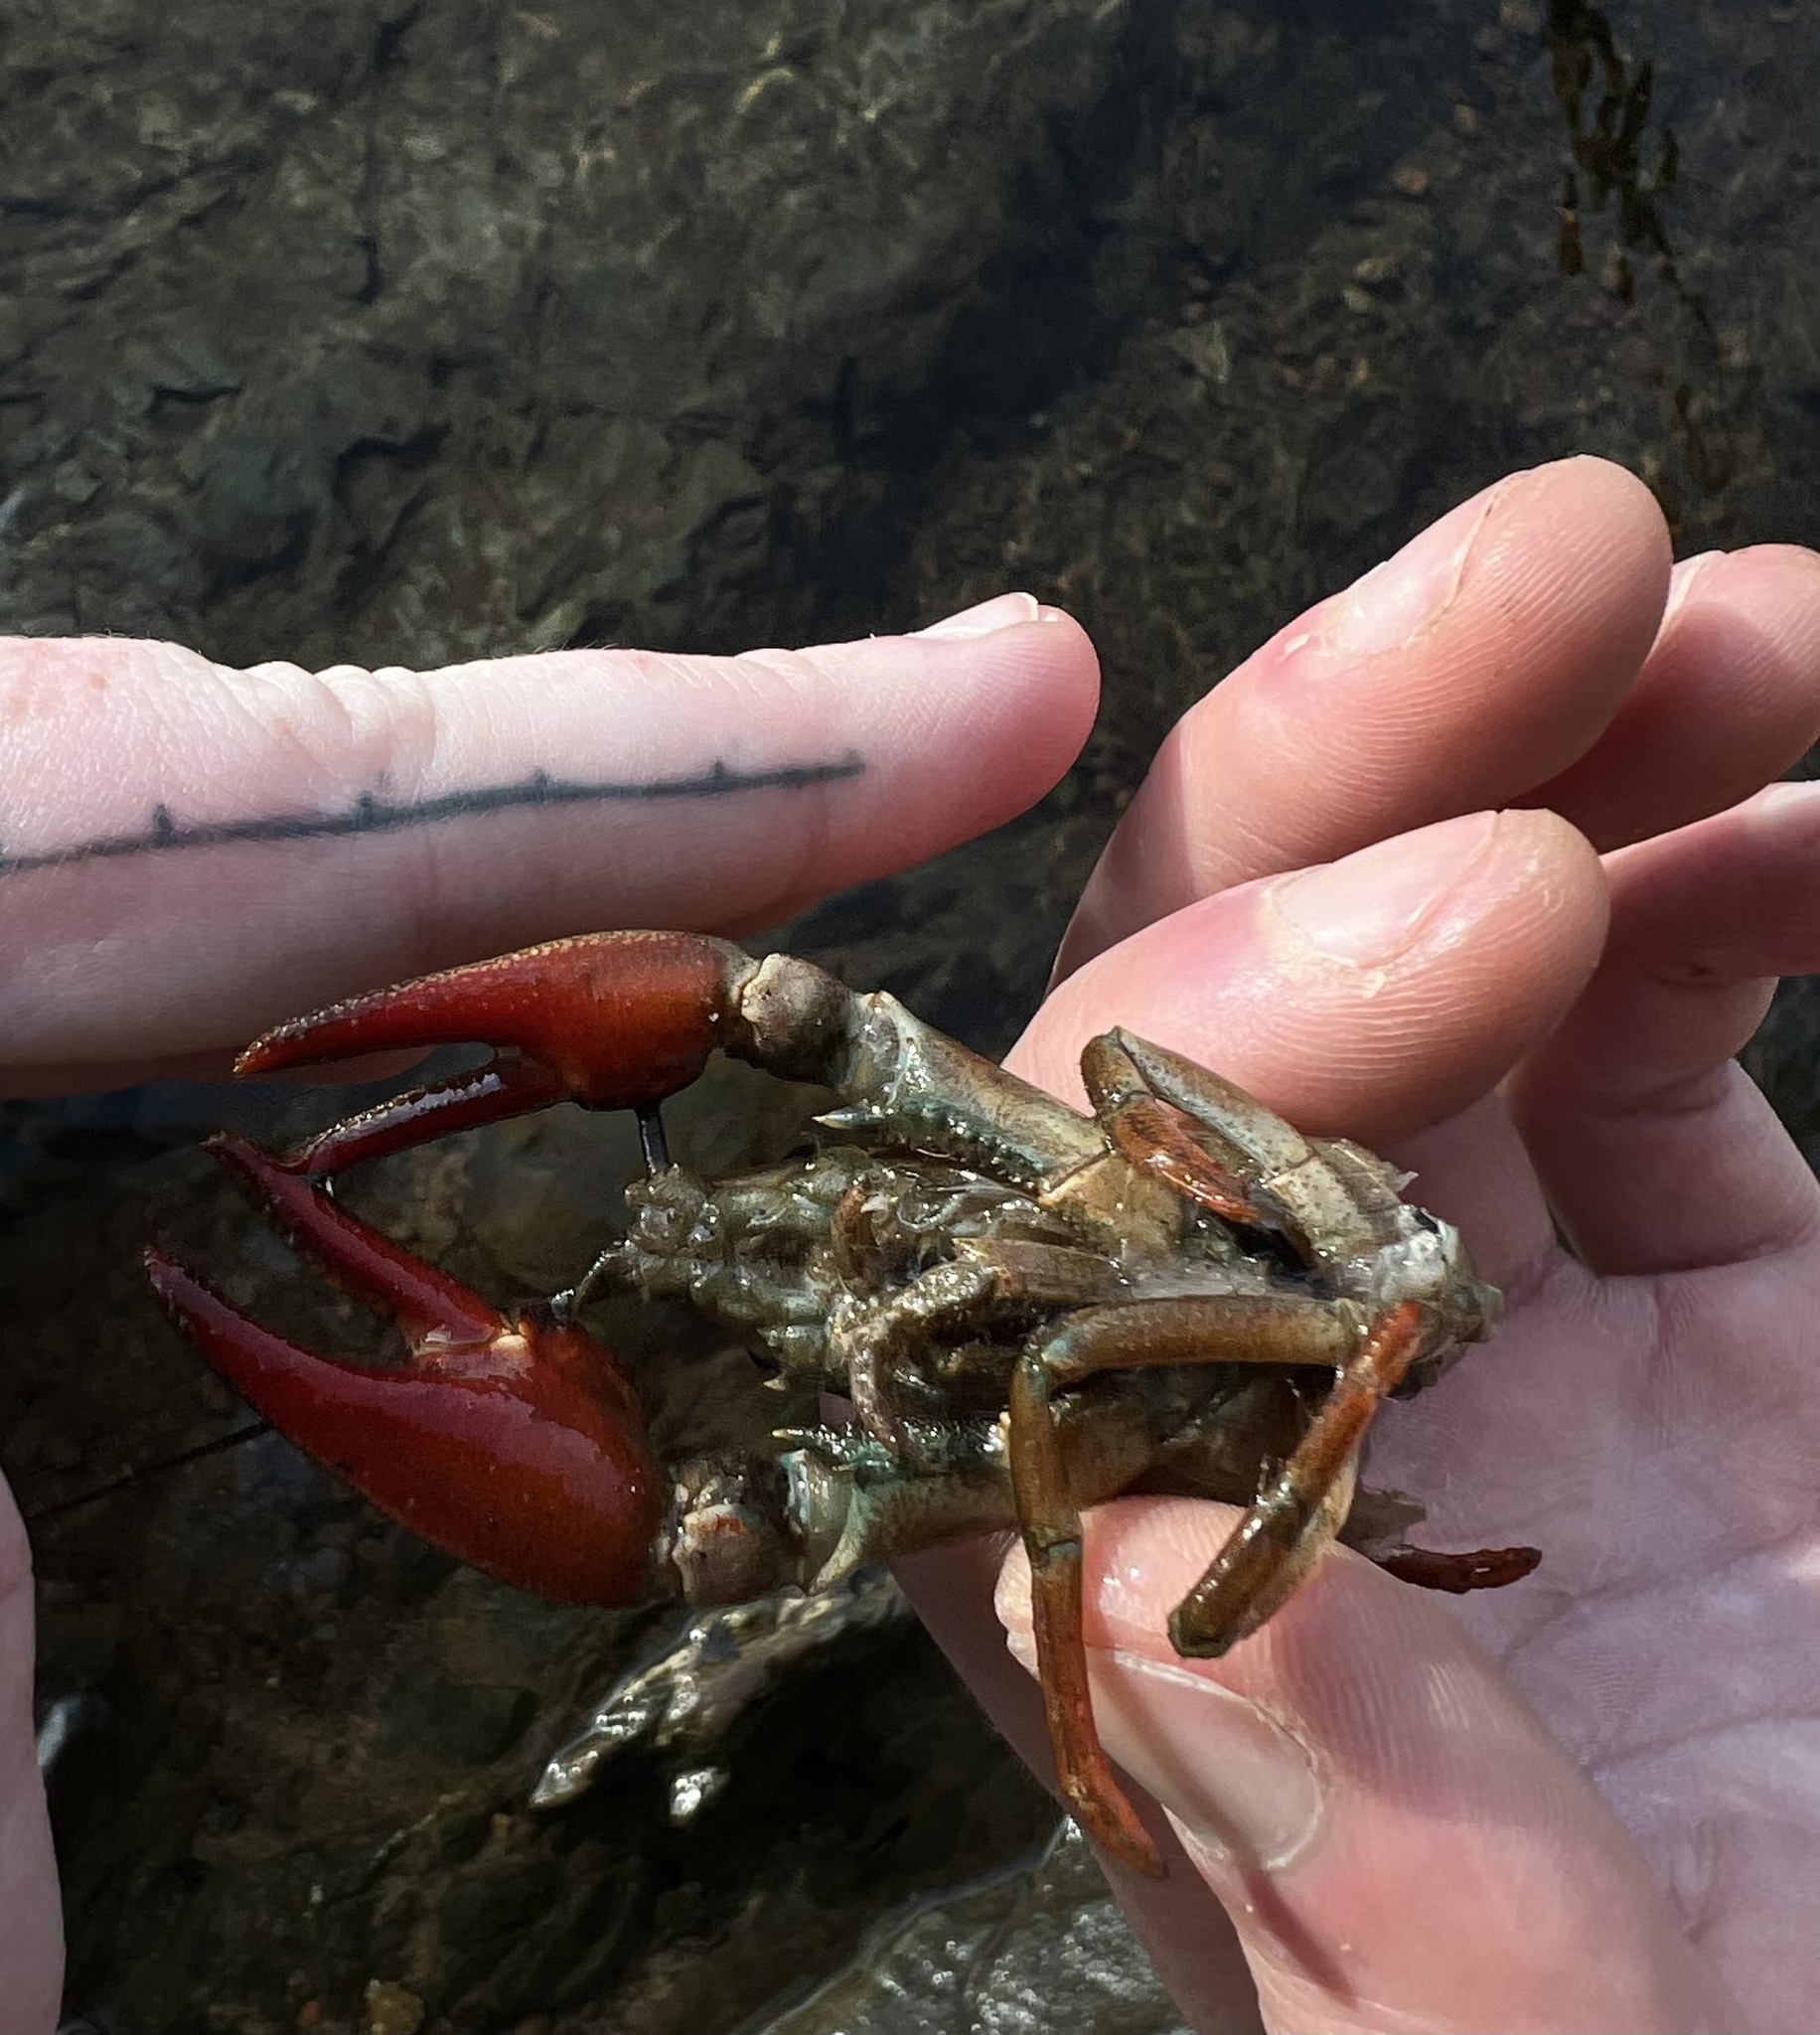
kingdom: Animalia
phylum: Arthropoda
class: Malacostraca
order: Decapoda
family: Astacidae
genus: Pacifastacus
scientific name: Pacifastacus leniusculus
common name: Signal crayfish
